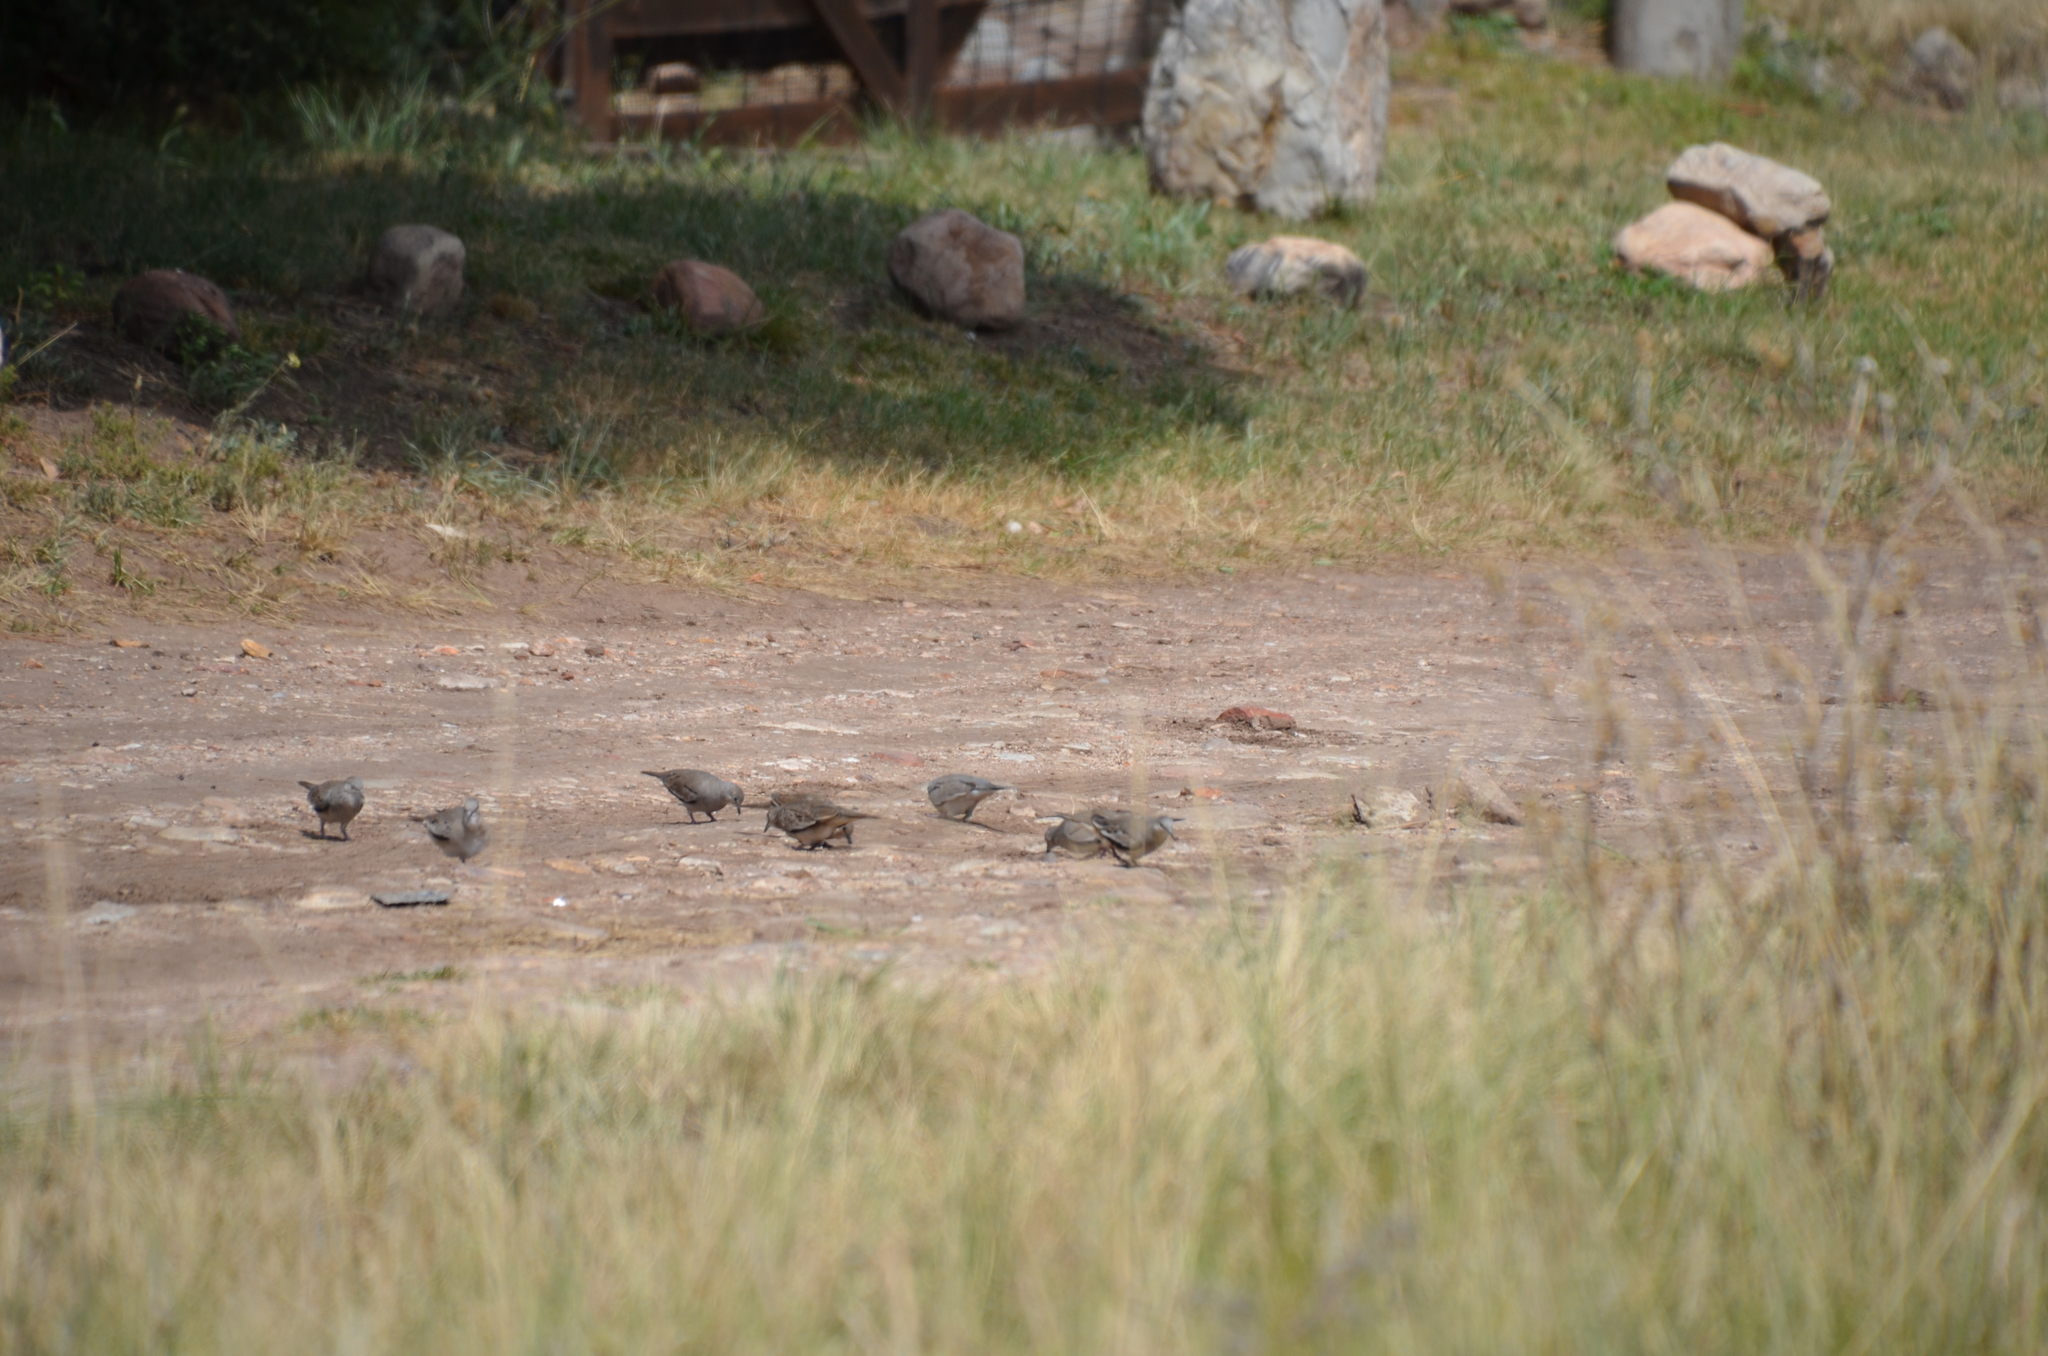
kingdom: Animalia
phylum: Chordata
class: Aves
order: Columbiformes
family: Columbidae
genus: Columbina
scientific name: Columbina picui
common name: Picui ground dove
